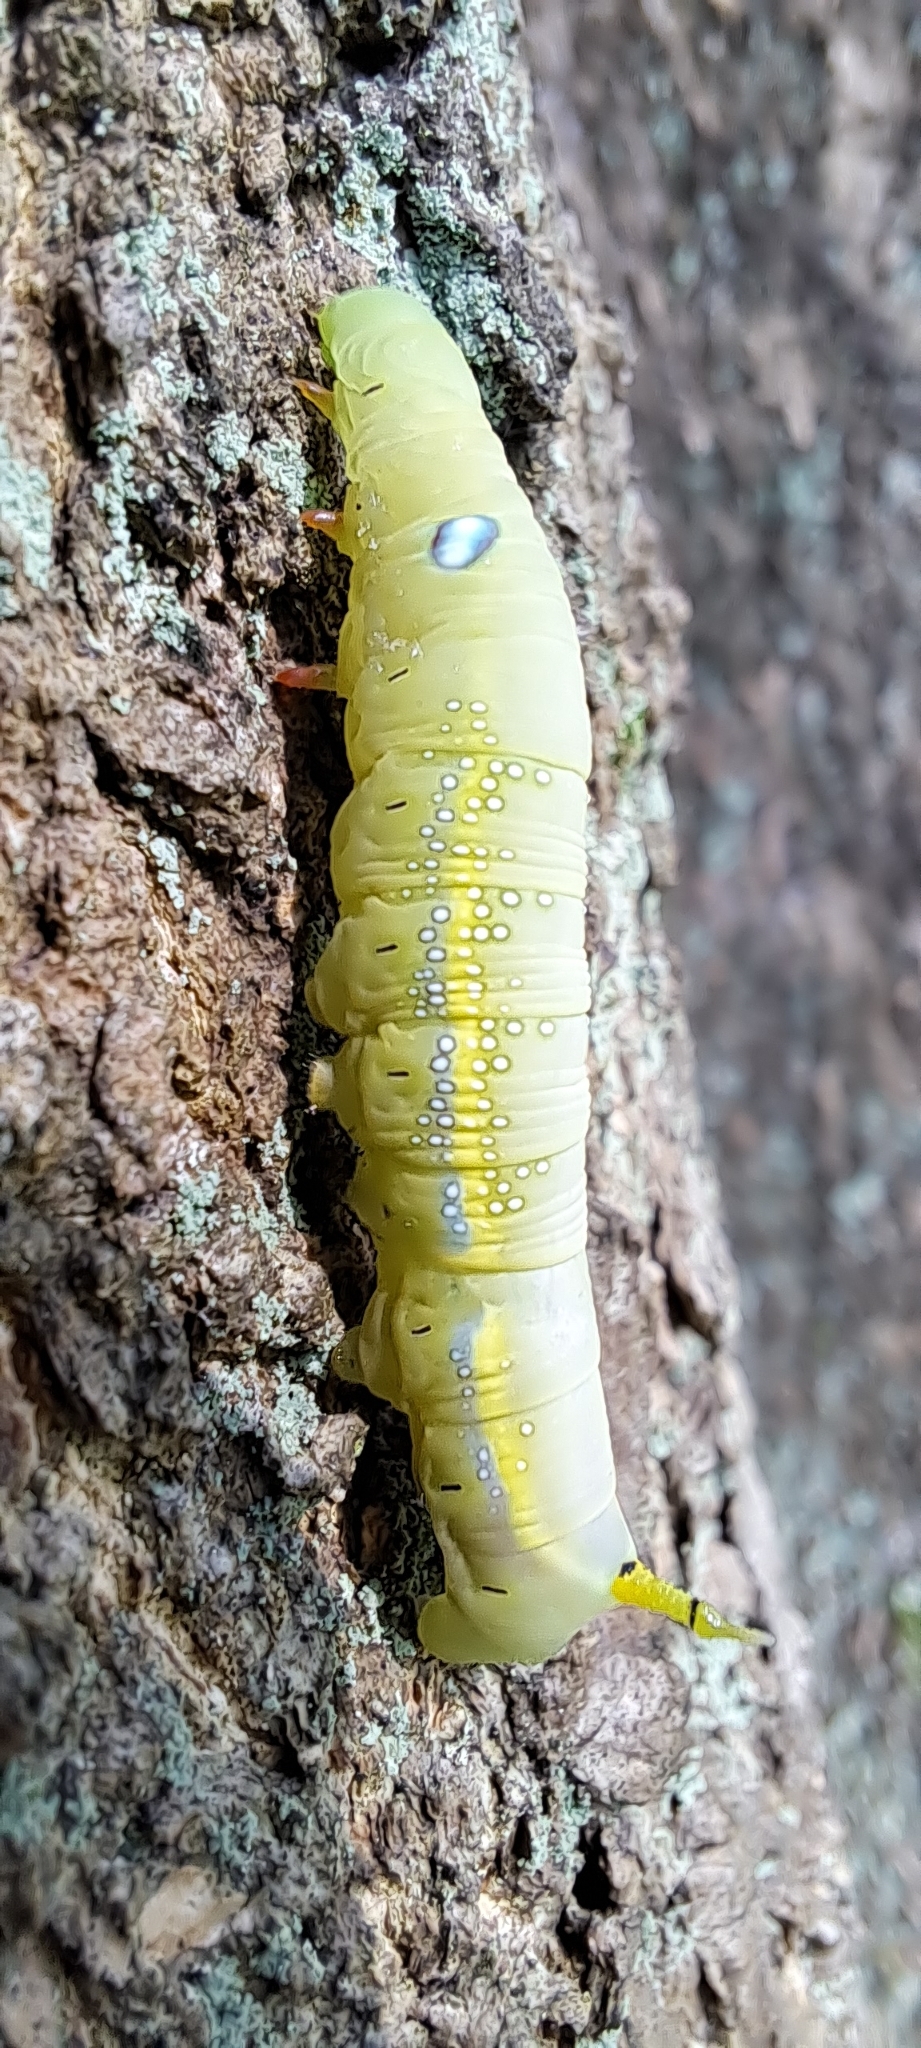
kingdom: Animalia
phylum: Arthropoda
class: Insecta
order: Lepidoptera
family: Sphingidae
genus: Daphnis
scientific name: Daphnis nerii
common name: Oleander hawk-moth
